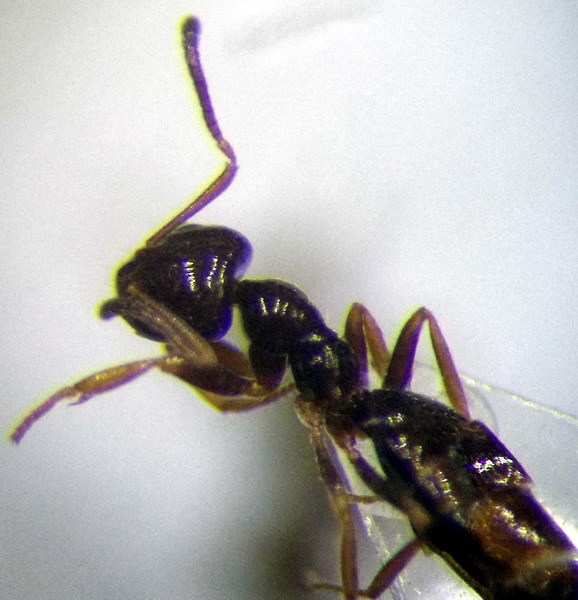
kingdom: Animalia
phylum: Arthropoda
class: Insecta
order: Hymenoptera
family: Formicidae
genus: Plagiolepis
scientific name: Plagiolepis pallescens
